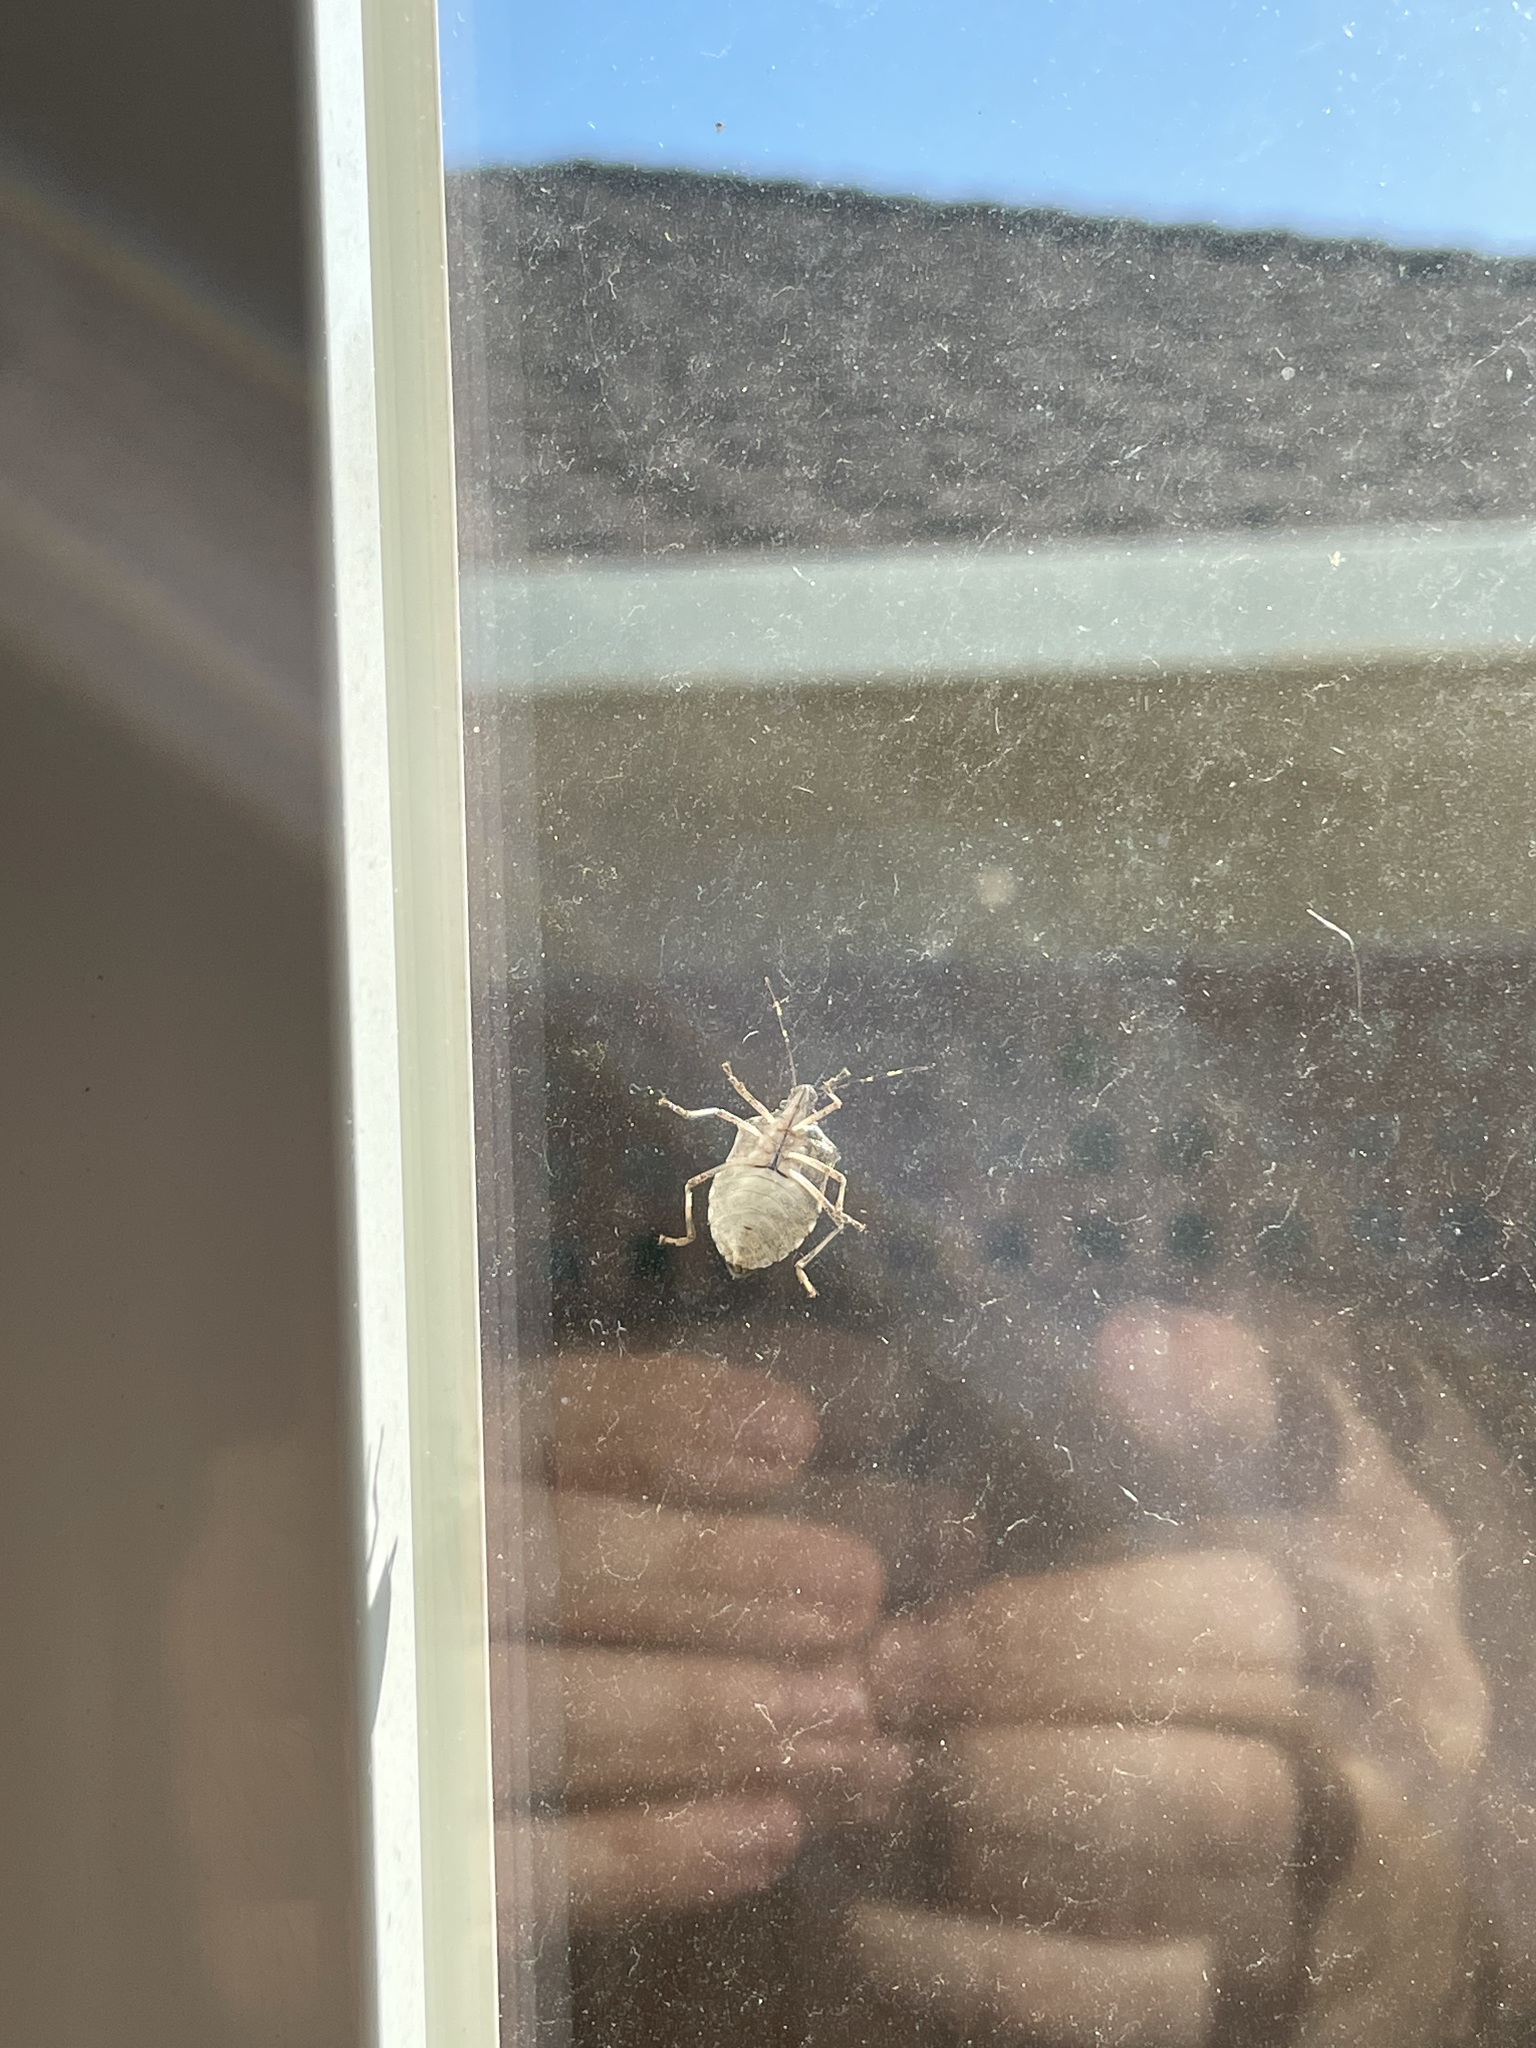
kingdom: Animalia
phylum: Arthropoda
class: Insecta
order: Hemiptera
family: Pentatomidae
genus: Halyomorpha
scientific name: Halyomorpha halys
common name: Brown marmorated stink bug
